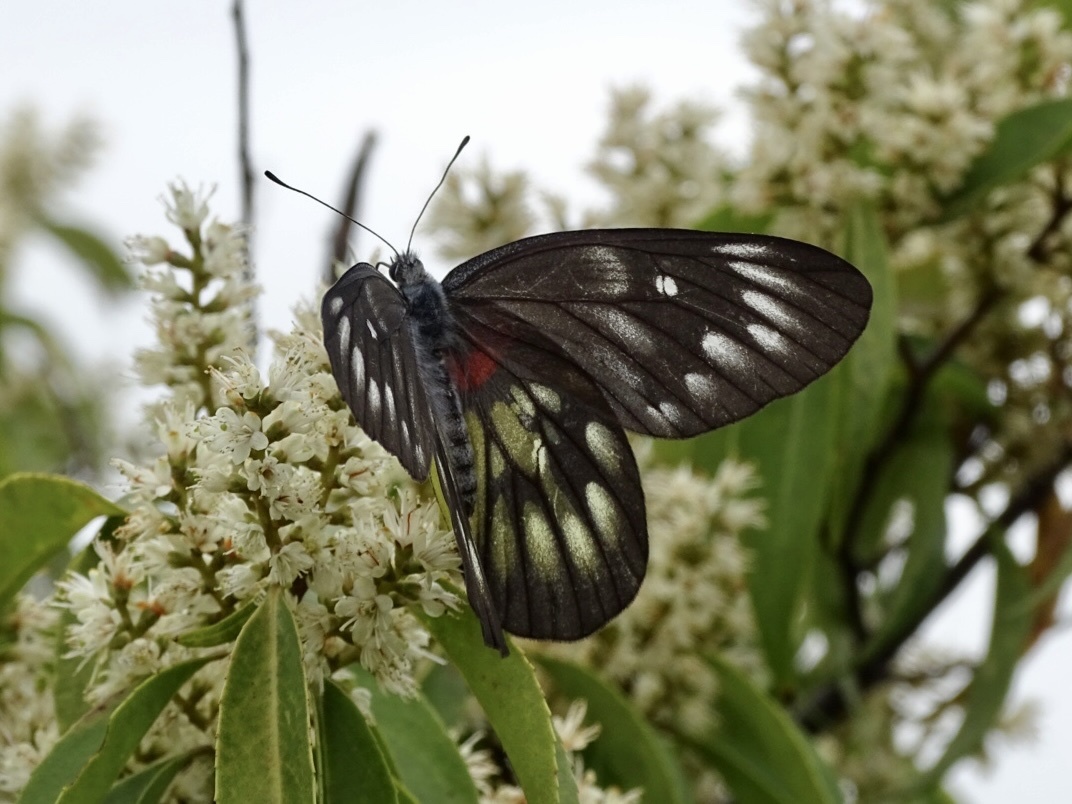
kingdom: Animalia
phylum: Arthropoda
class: Insecta
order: Lepidoptera
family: Pieridae
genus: Delias
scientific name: Delias pasithoe
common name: Red-base jezebel
